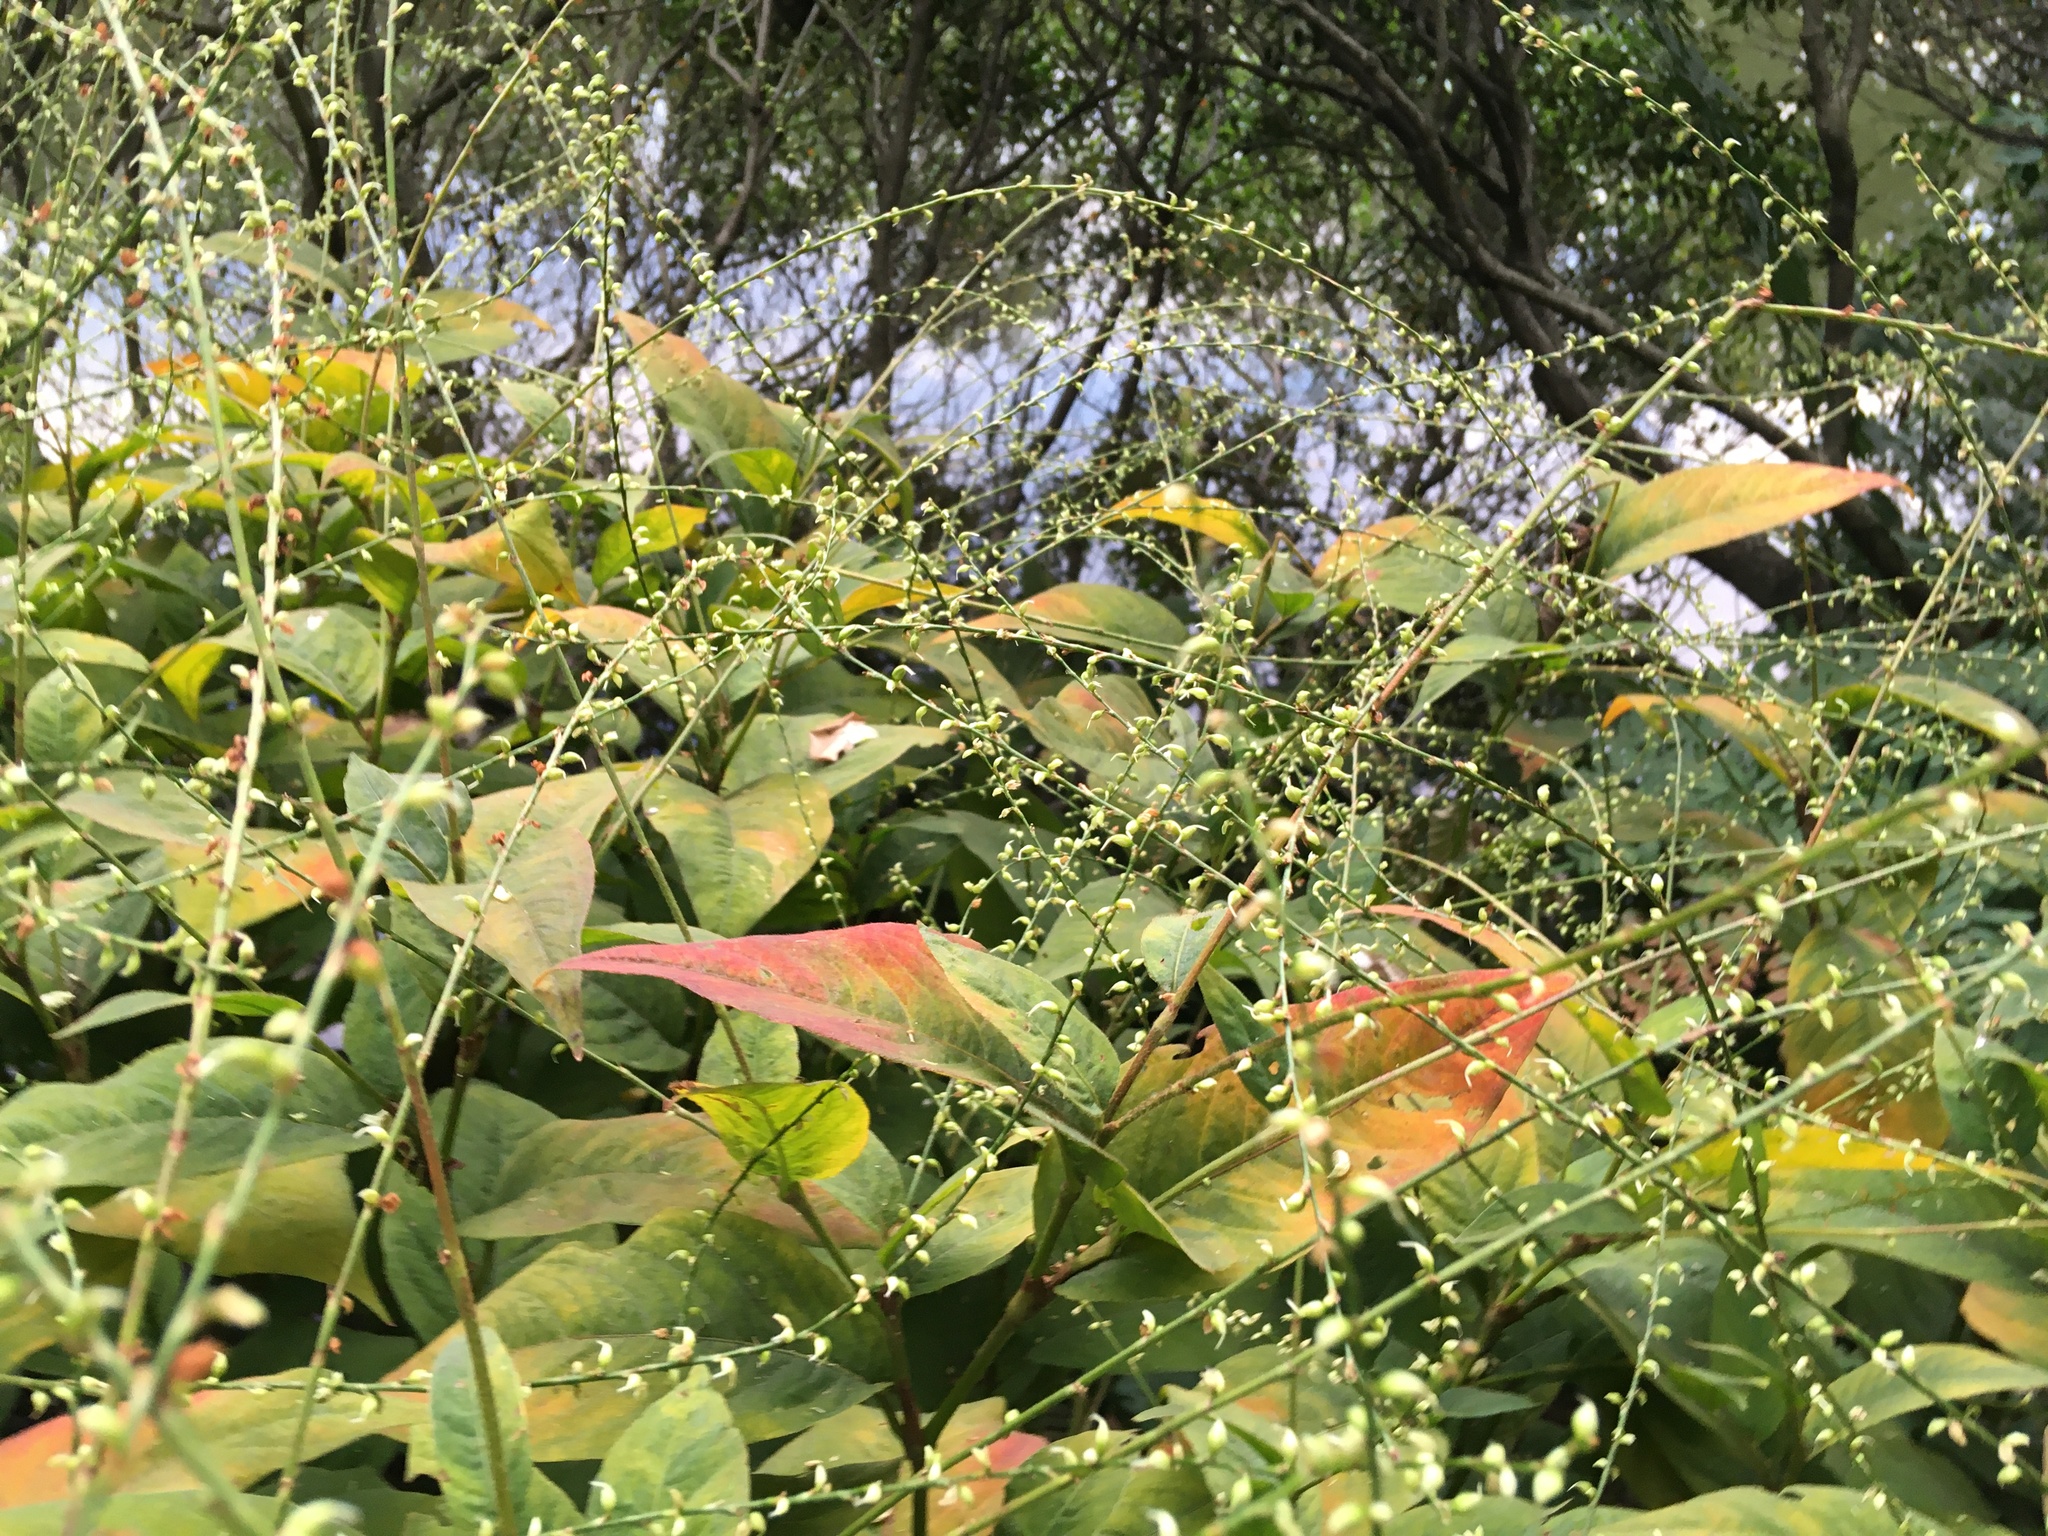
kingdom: Plantae
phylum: Tracheophyta
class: Magnoliopsida
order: Caryophyllales
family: Polygonaceae
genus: Persicaria
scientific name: Persicaria virginiana
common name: Jumpseed
